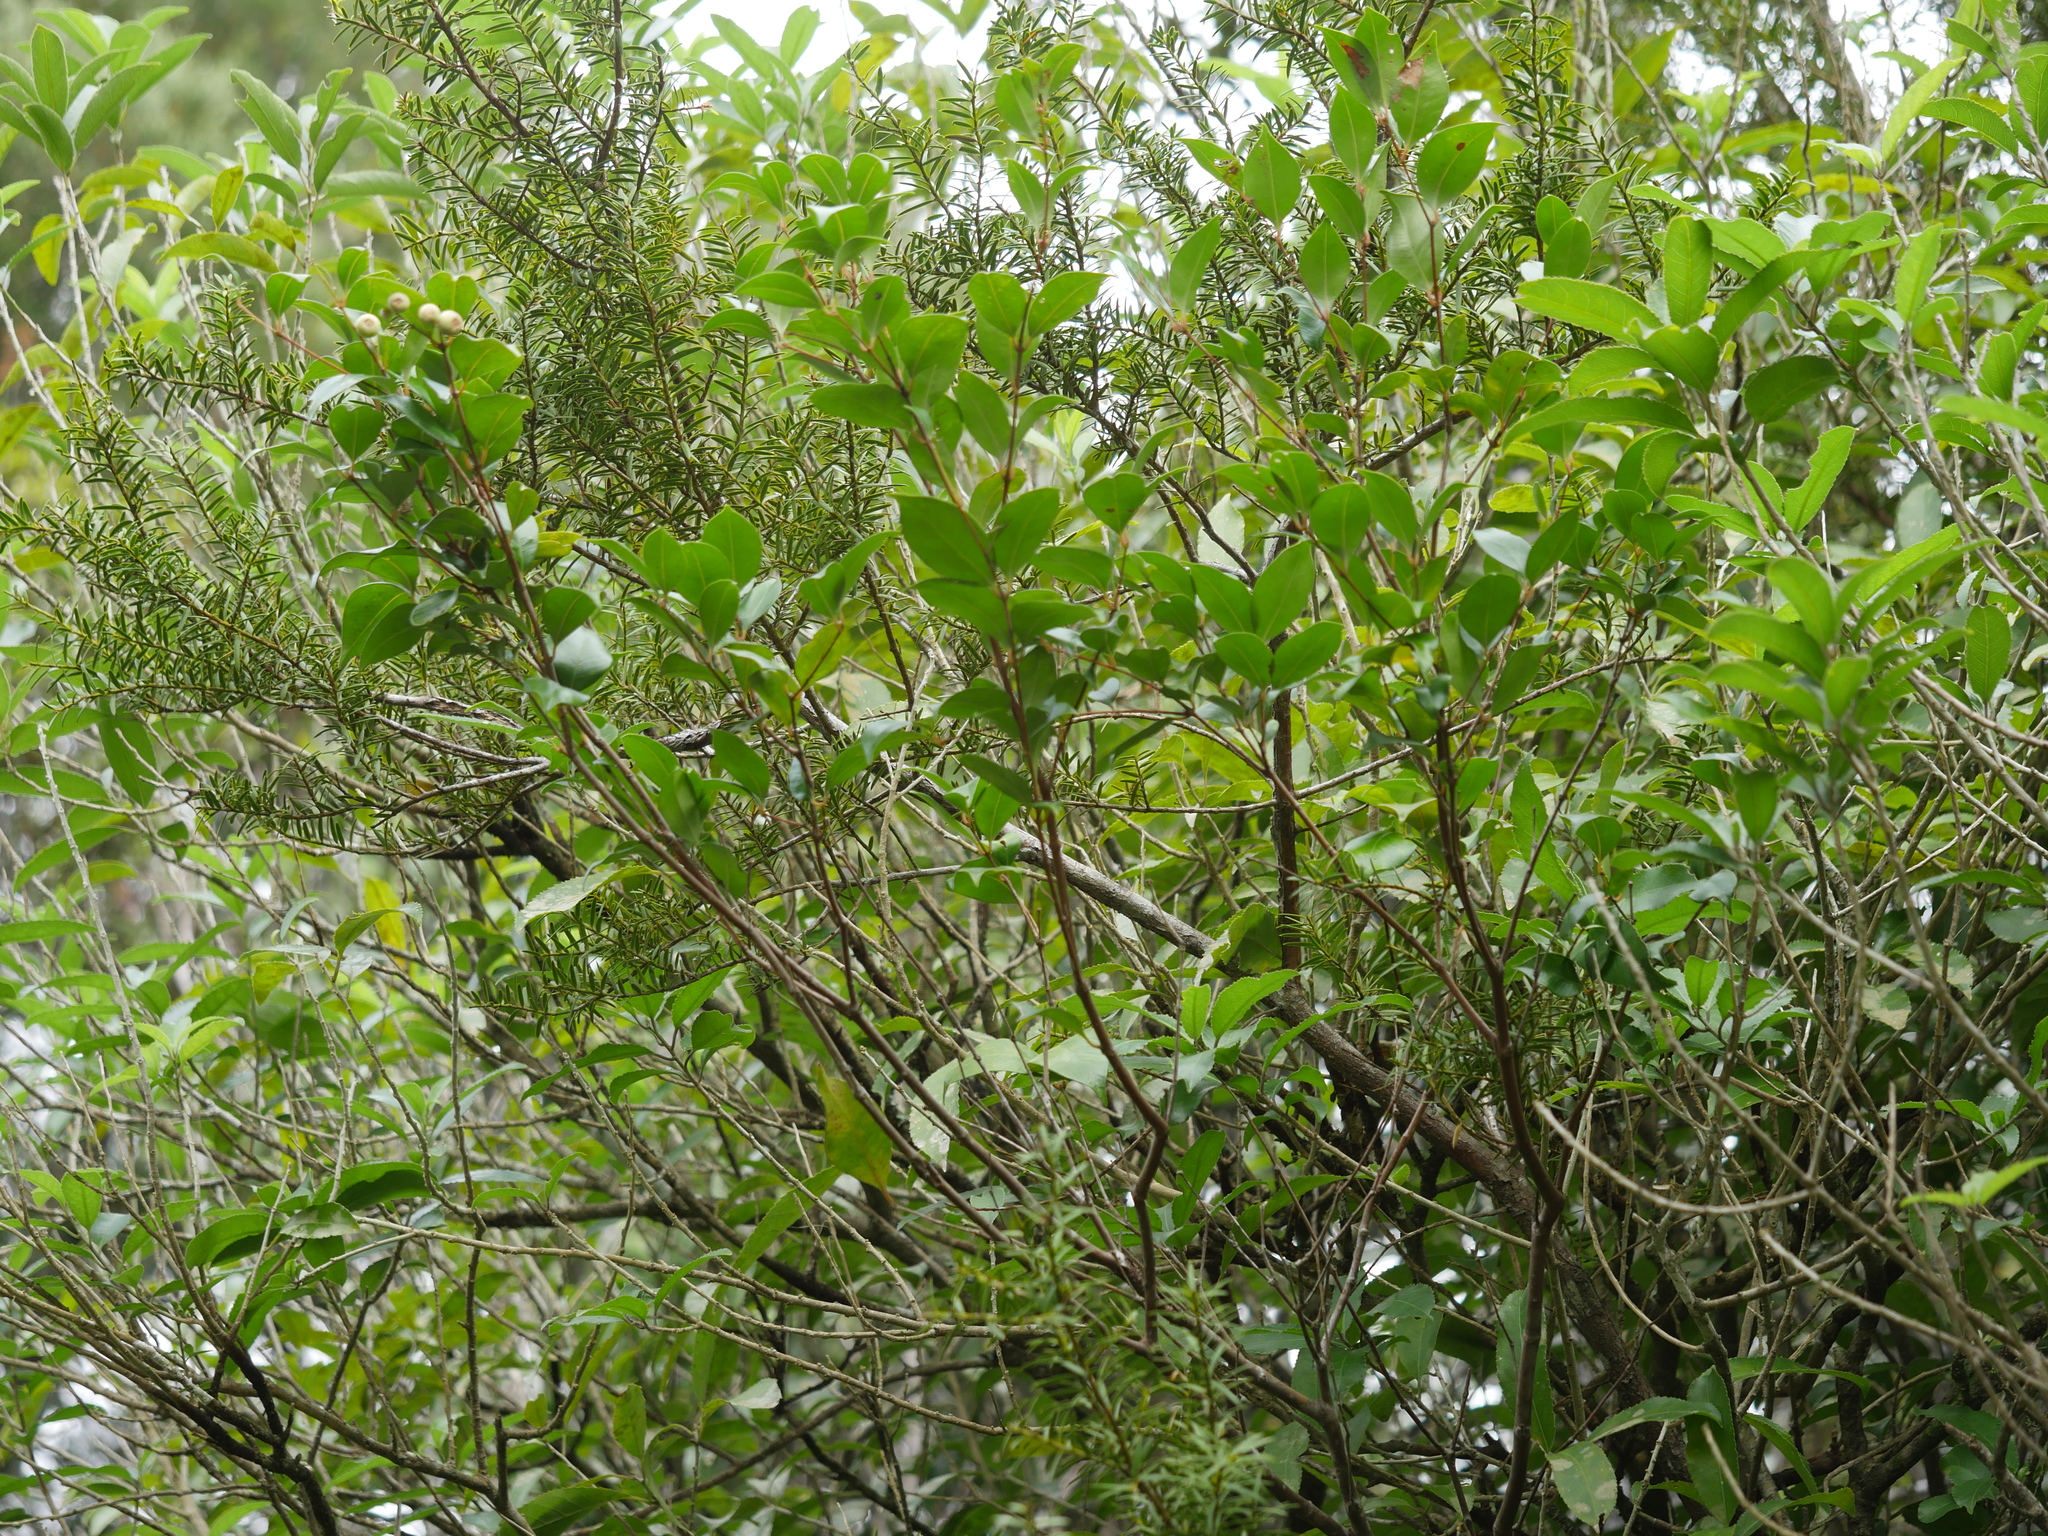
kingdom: Plantae
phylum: Tracheophyta
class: Magnoliopsida
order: Myrtales
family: Myrtaceae
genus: Syzygium
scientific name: Syzygium smithii
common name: Lilly-pilly
